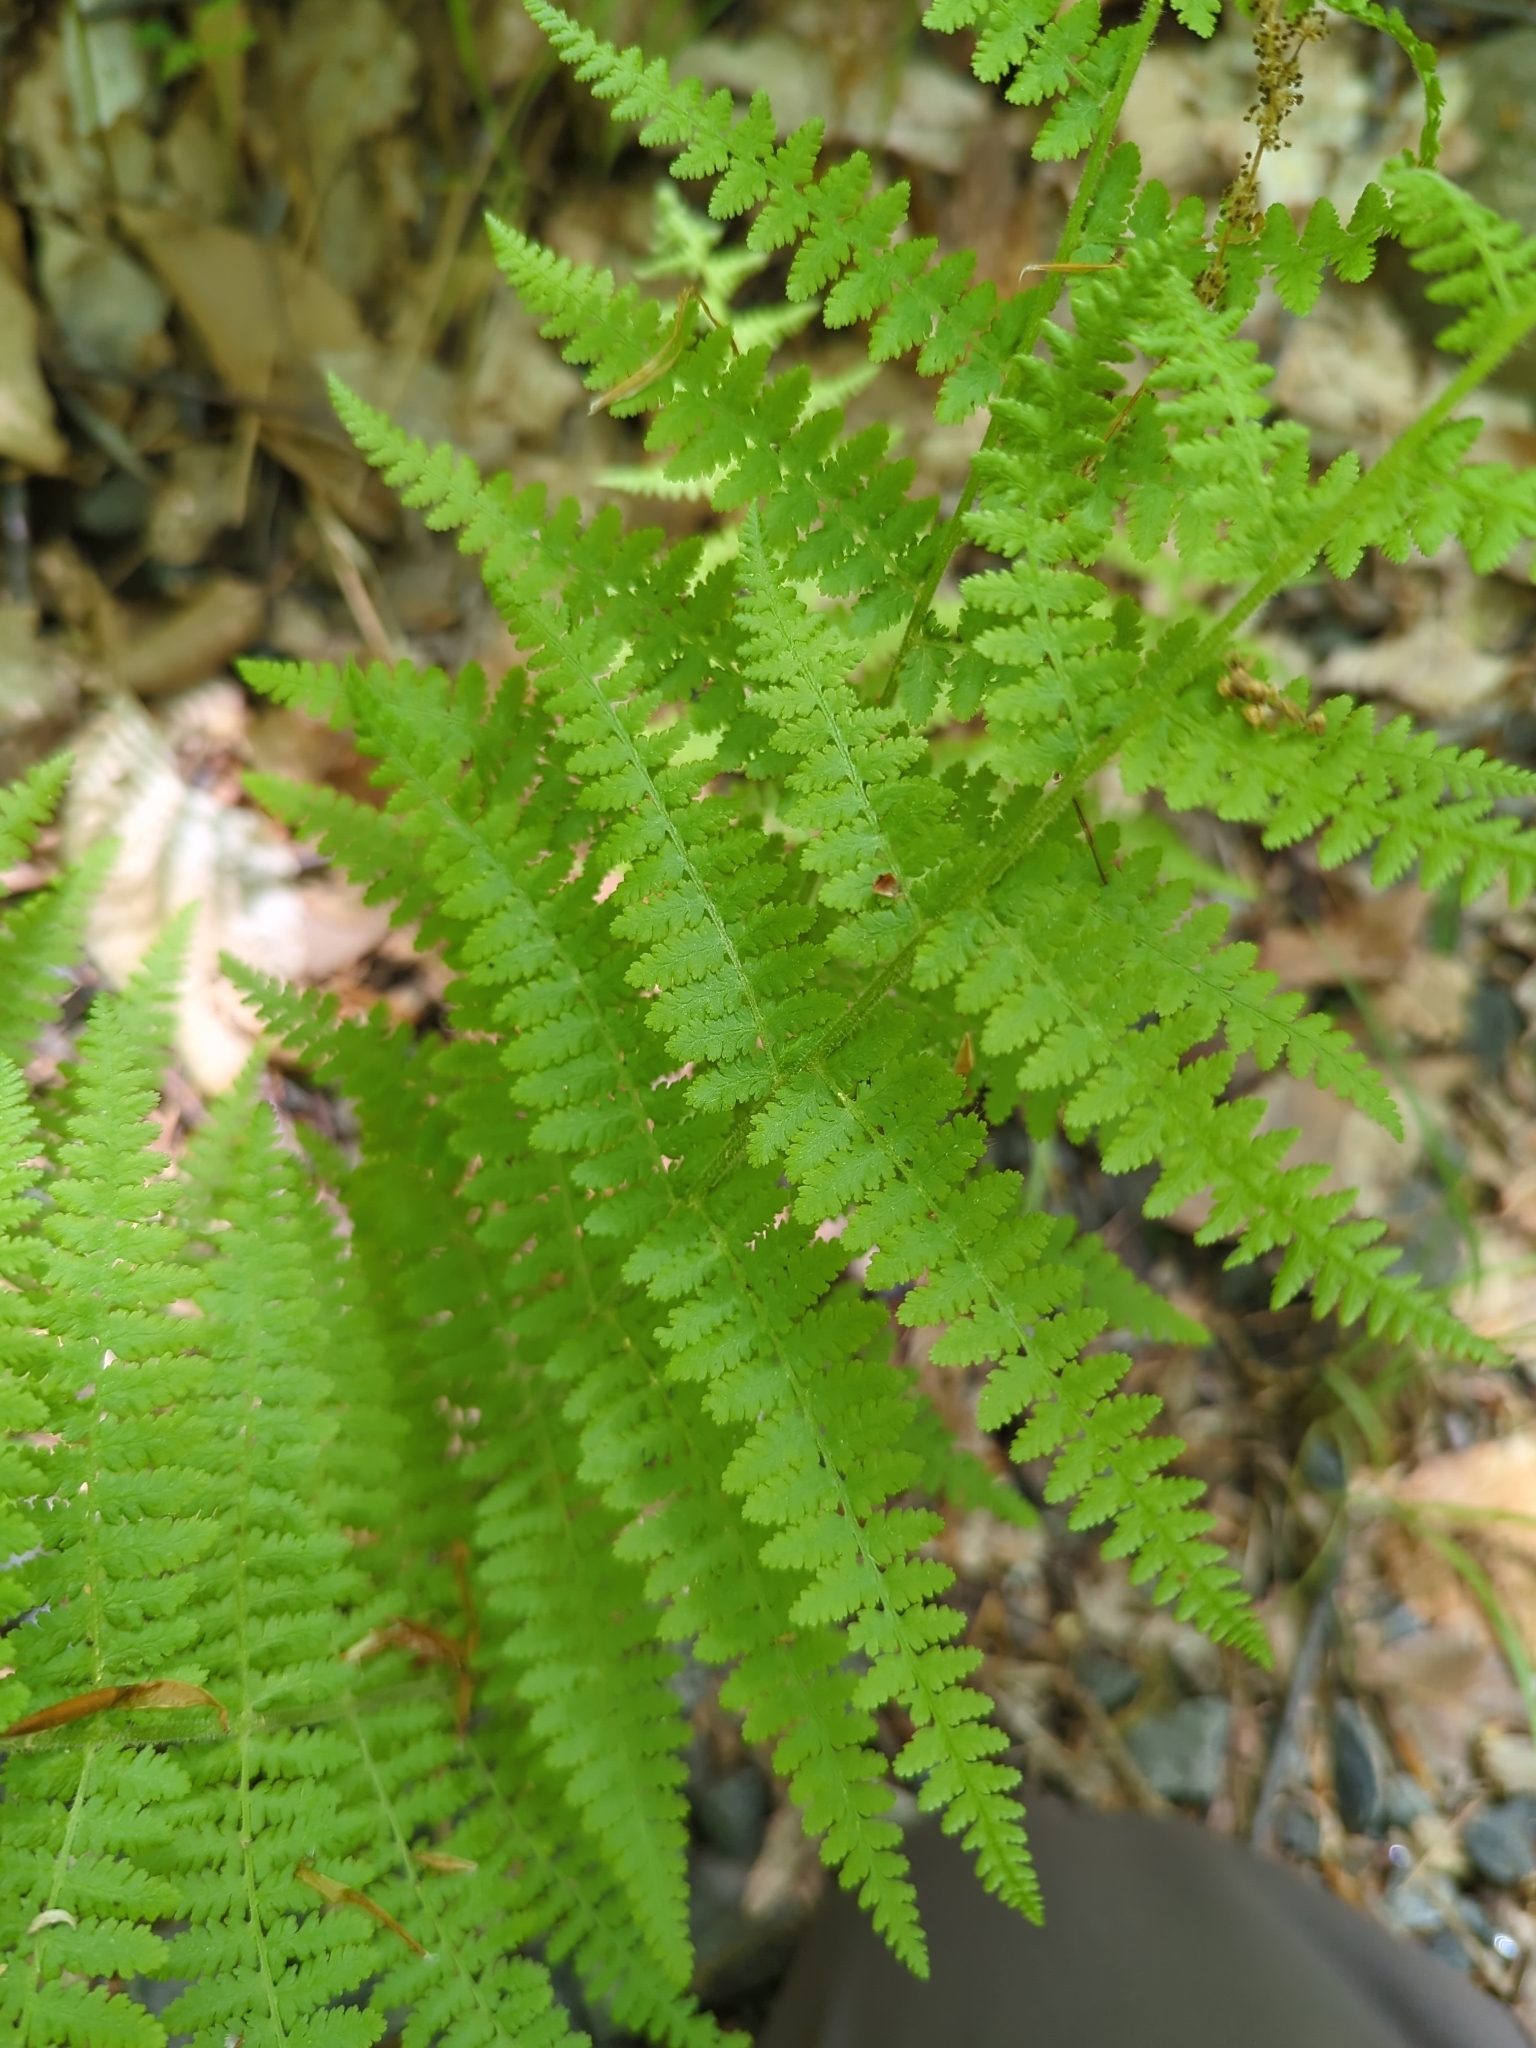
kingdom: Plantae
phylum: Tracheophyta
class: Polypodiopsida
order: Polypodiales
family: Dennstaedtiaceae
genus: Sitobolium
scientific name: Sitobolium punctilobum
